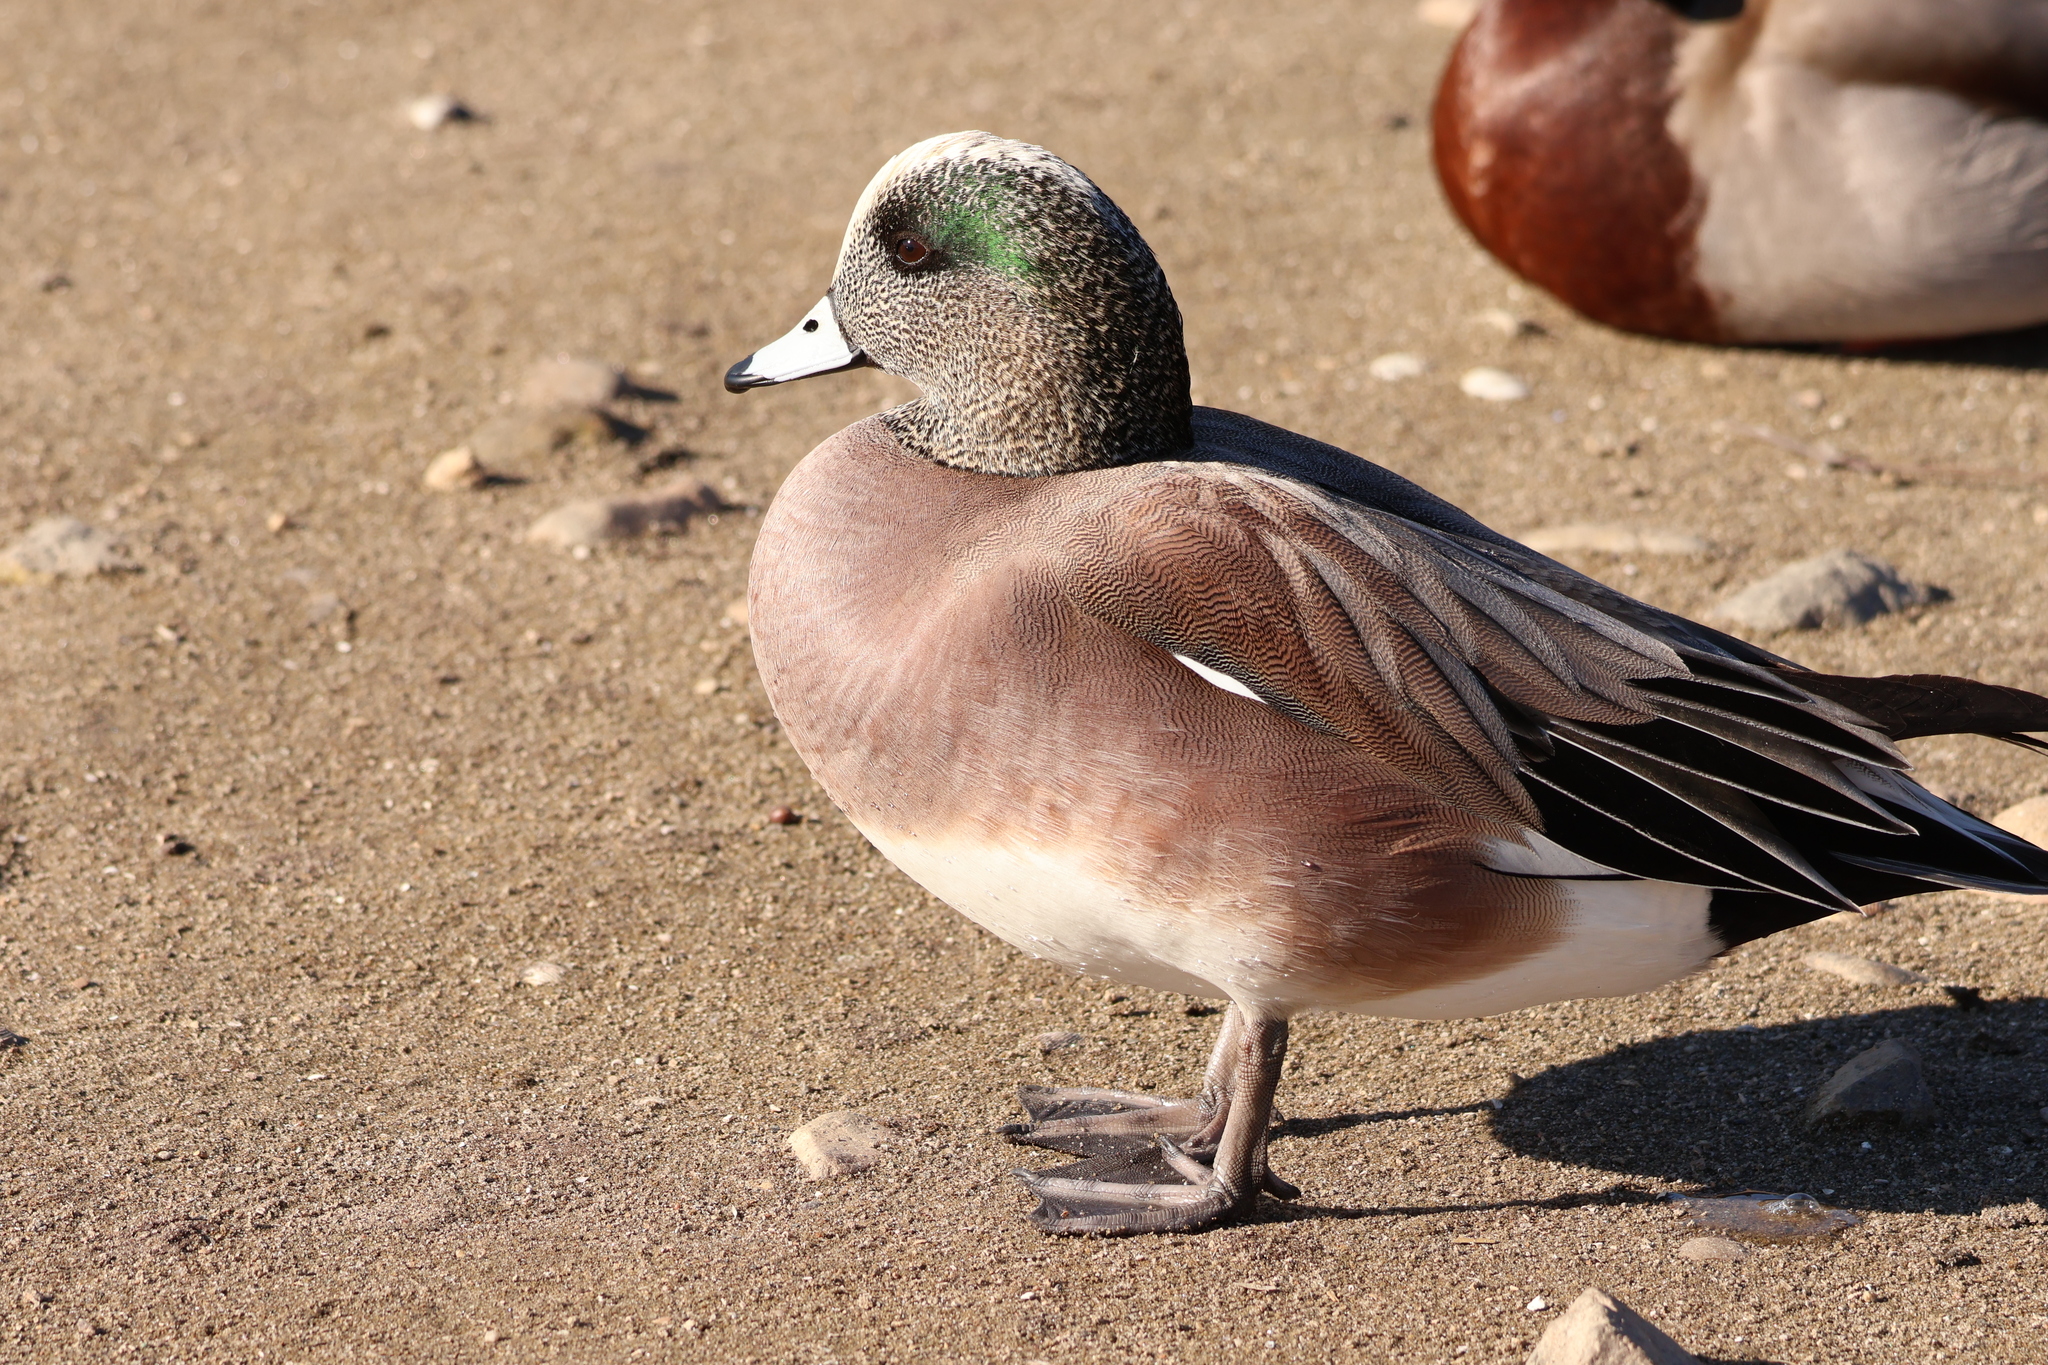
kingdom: Animalia
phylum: Chordata
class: Aves
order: Anseriformes
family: Anatidae
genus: Mareca
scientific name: Mareca americana
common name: American wigeon
